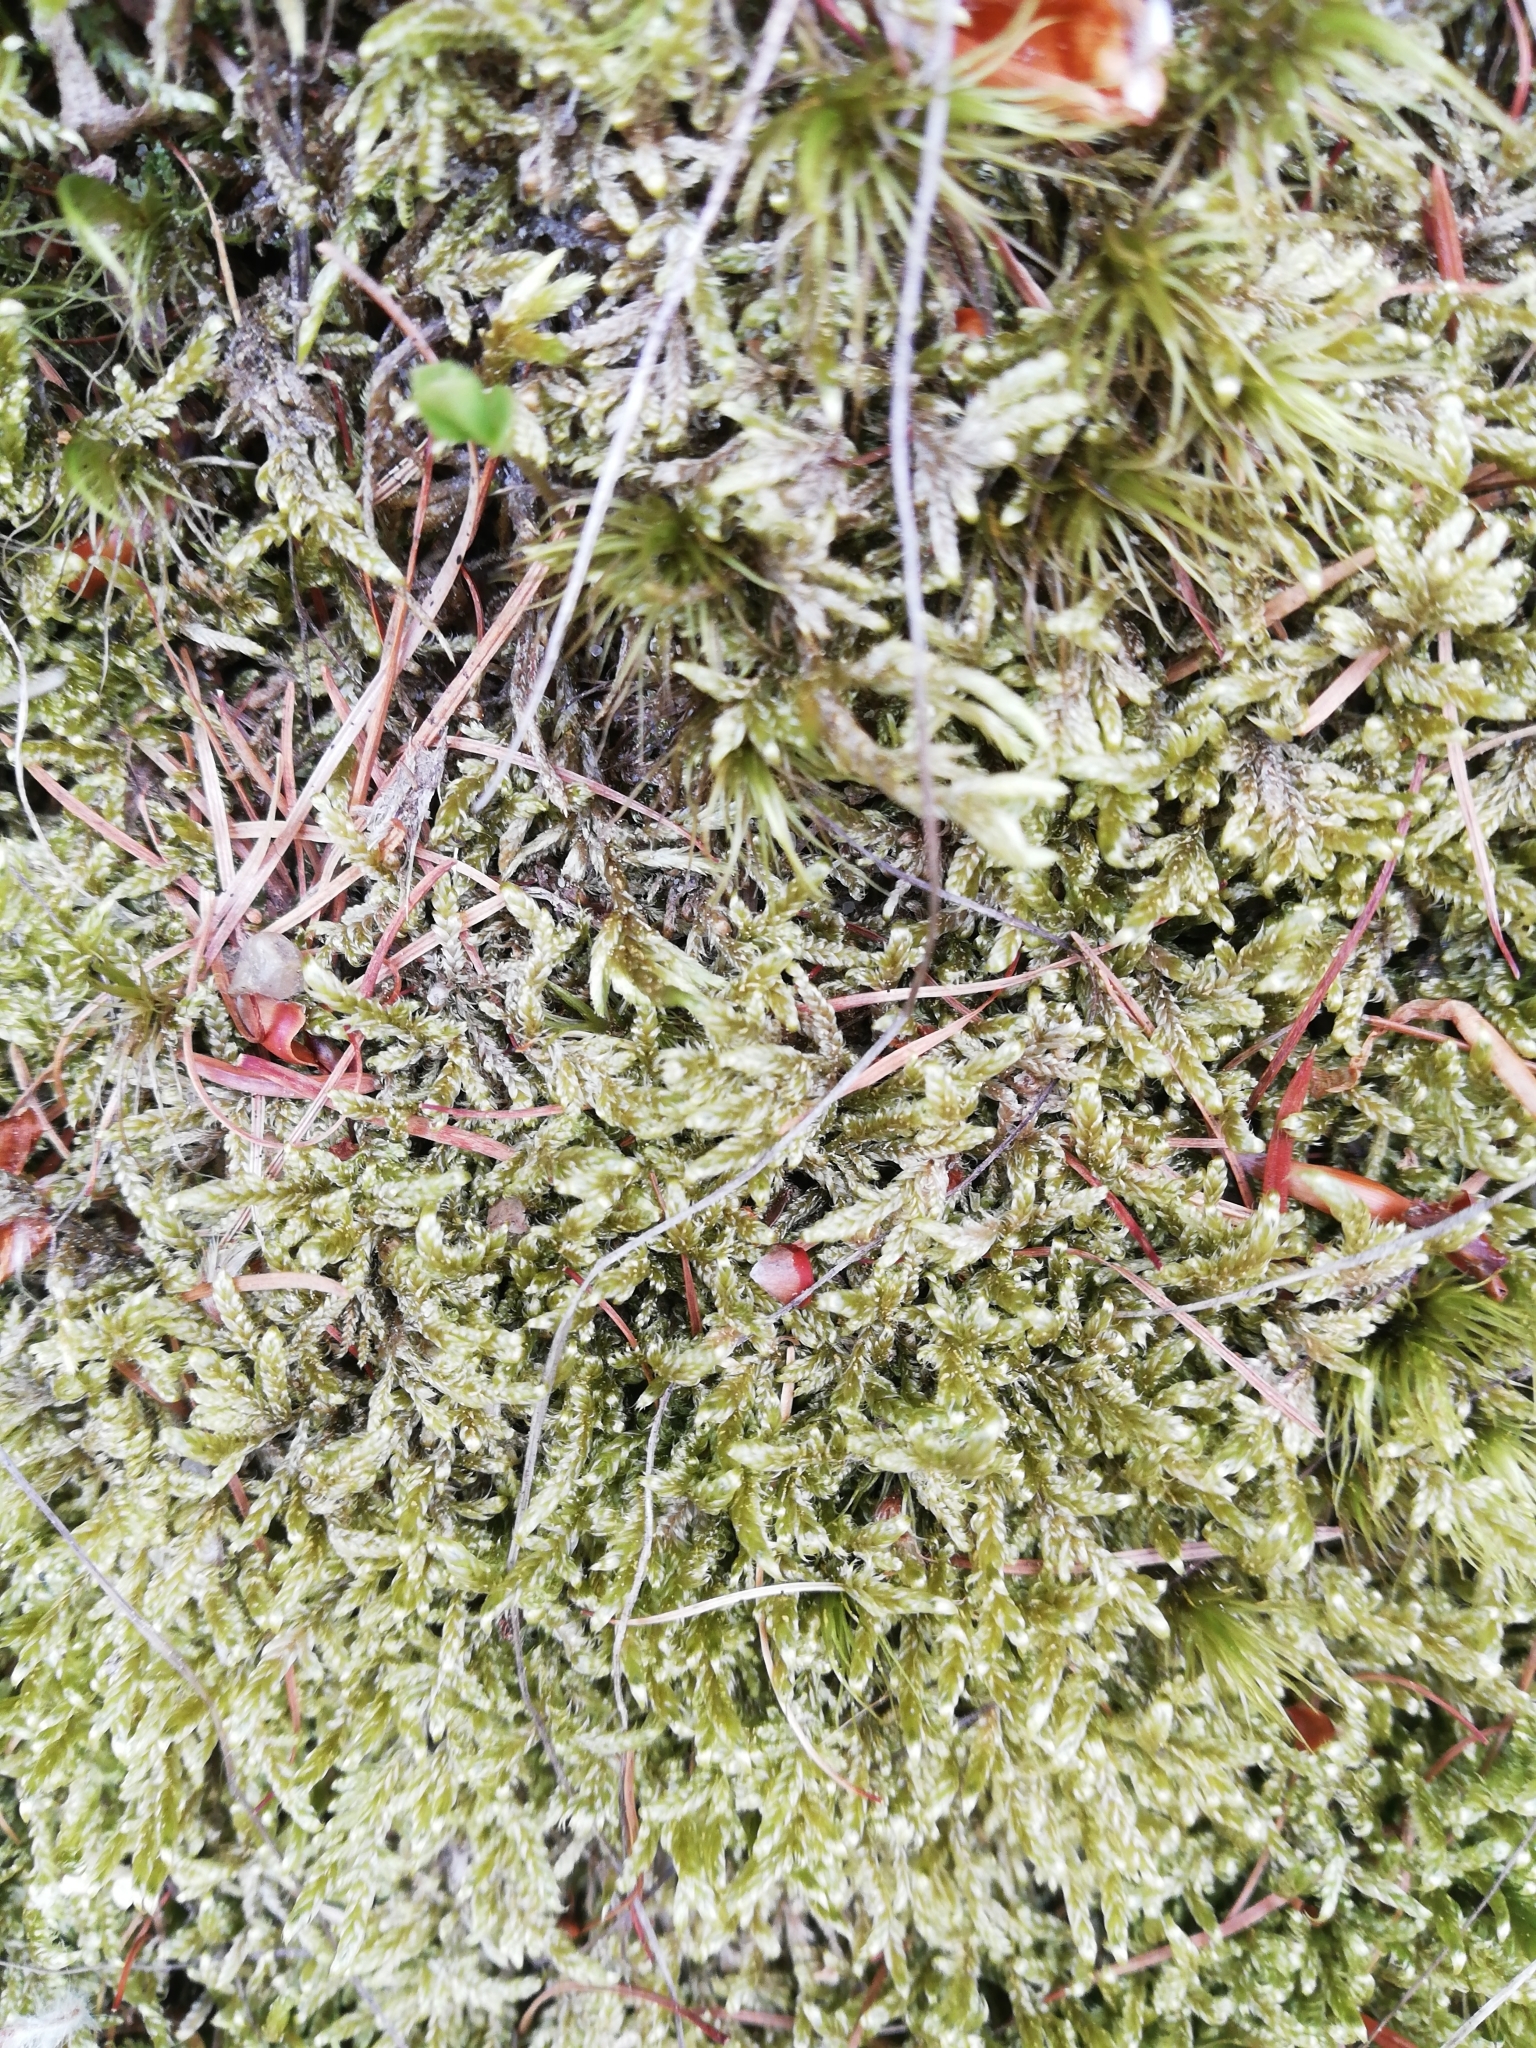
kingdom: Plantae
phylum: Bryophyta
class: Bryopsida
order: Hypnales
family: Hypnaceae
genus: Hypnum
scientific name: Hypnum jutlandicum
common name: Heath plait-moss
